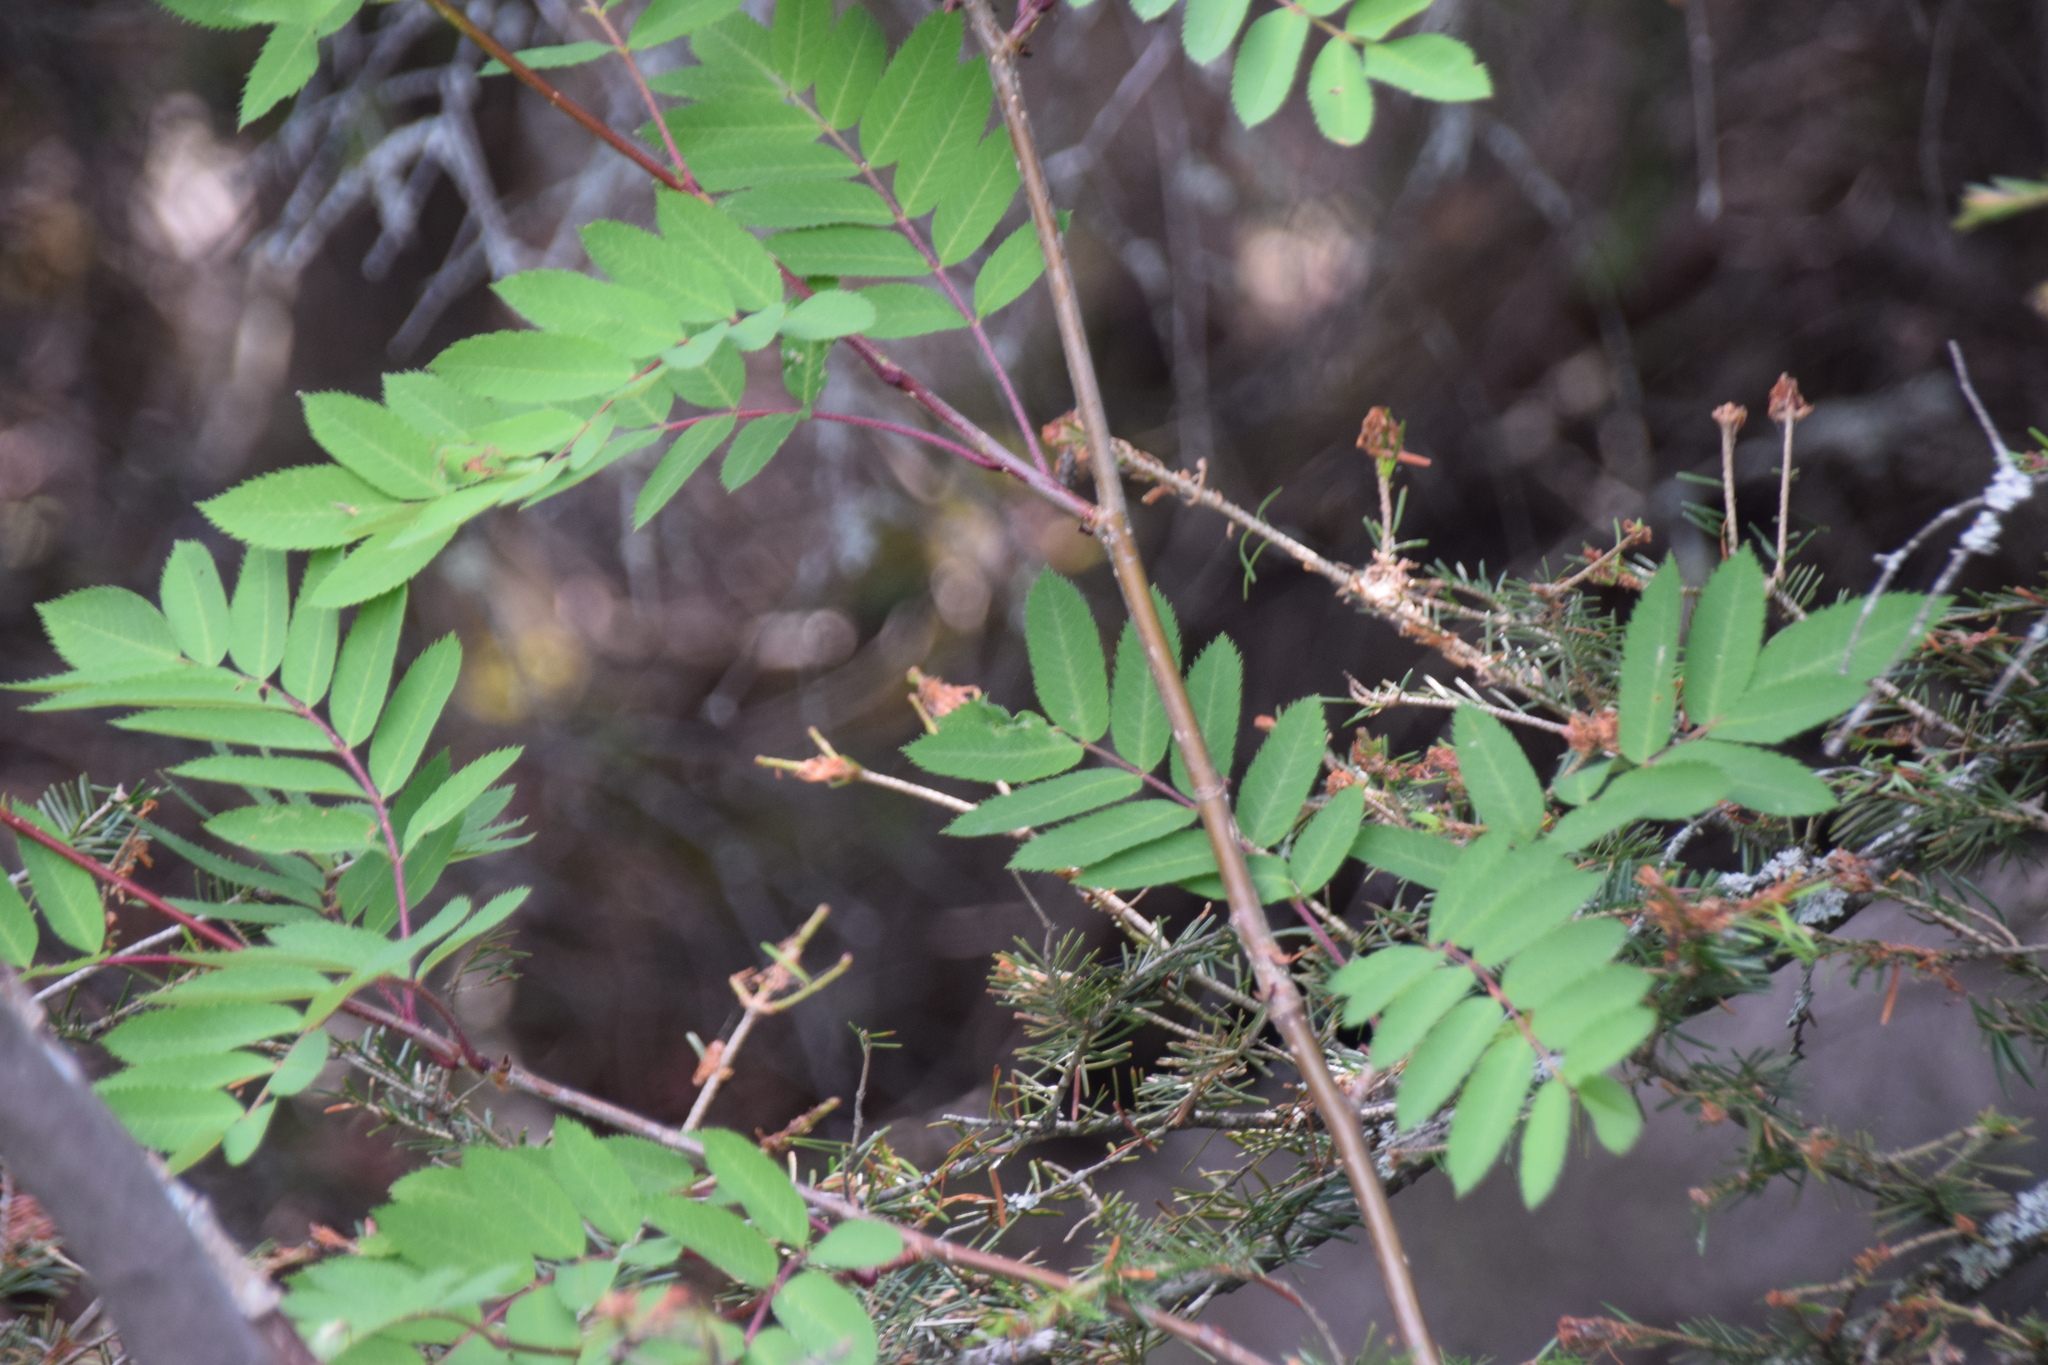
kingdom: Plantae
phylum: Tracheophyta
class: Magnoliopsida
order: Rosales
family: Rosaceae
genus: Sorbus
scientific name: Sorbus decora
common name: Northern mountain-ash
